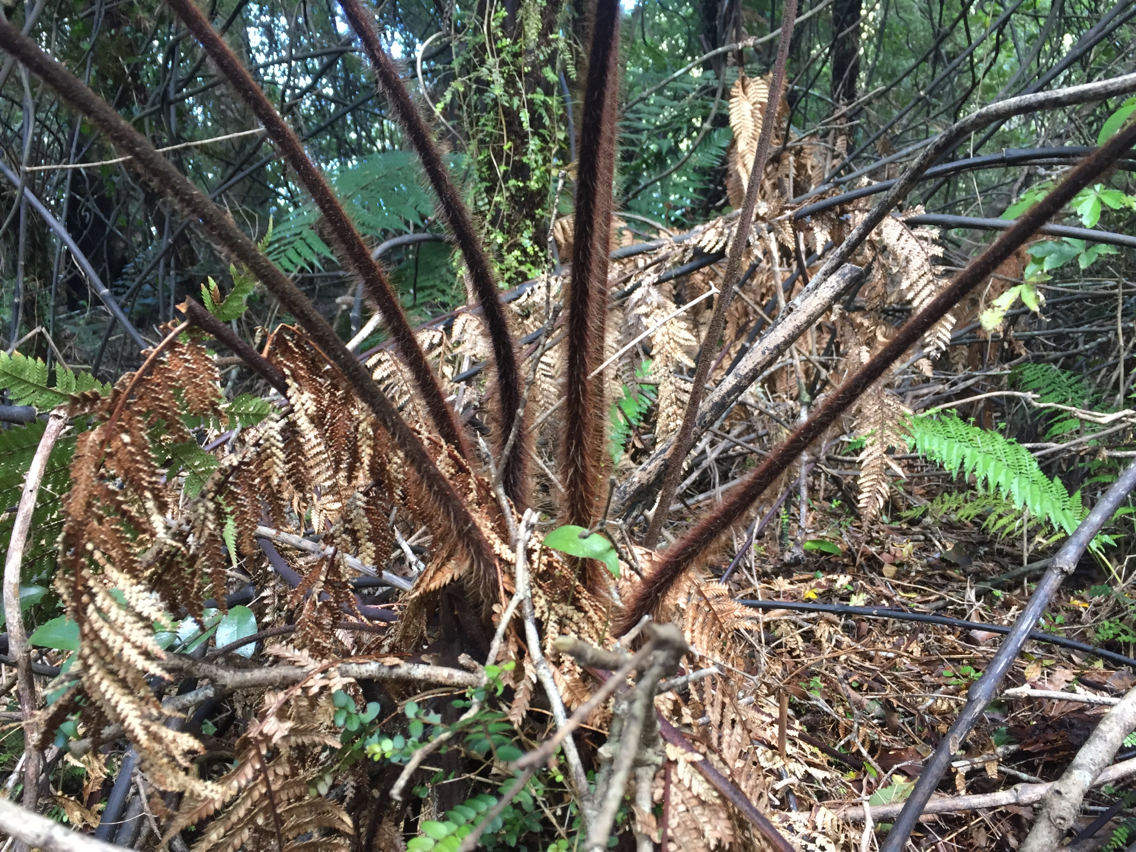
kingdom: Plantae
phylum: Tracheophyta
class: Polypodiopsida
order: Cyatheales
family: Dicksoniaceae
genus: Dicksonia
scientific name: Dicksonia squarrosa
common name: Hard treefern
